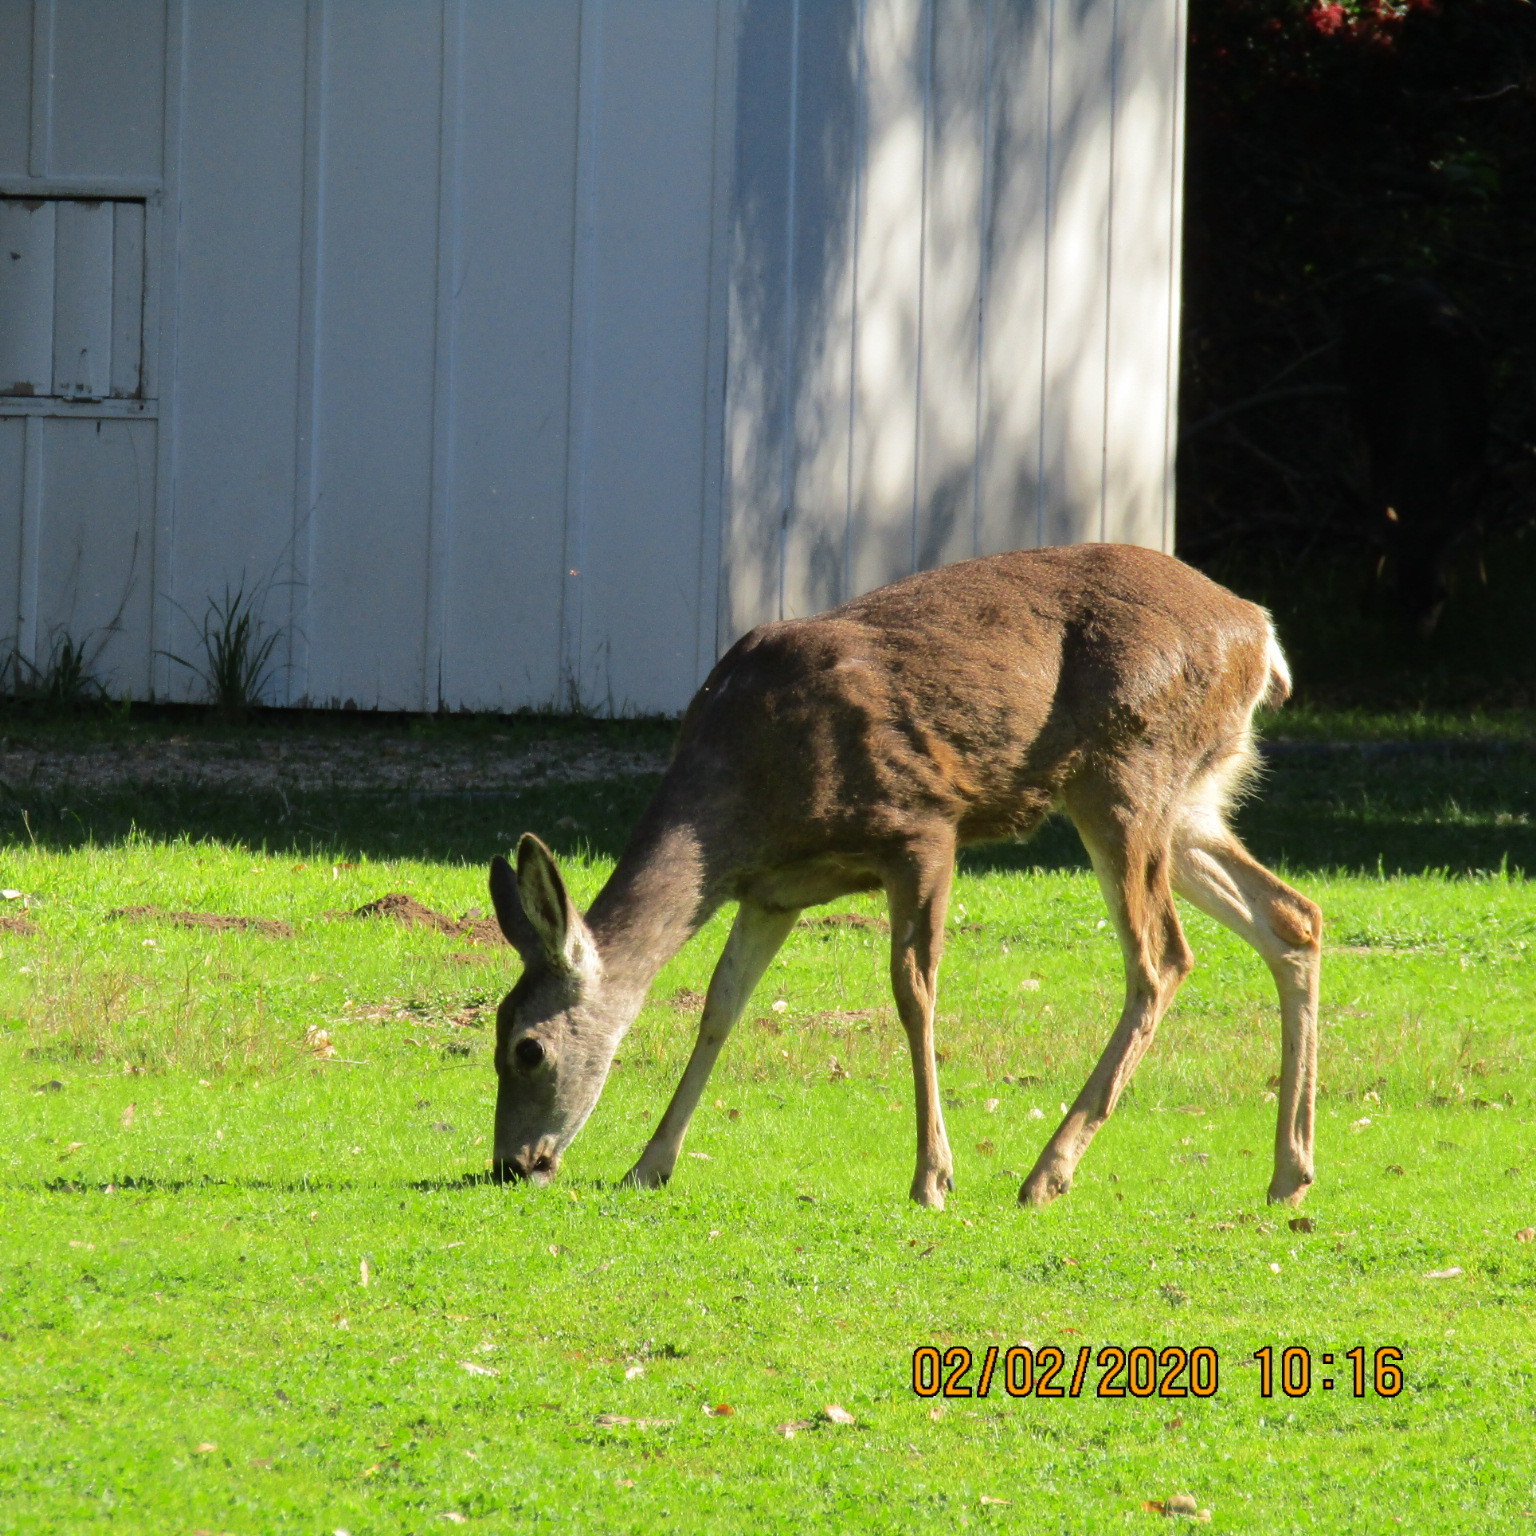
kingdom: Animalia
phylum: Chordata
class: Mammalia
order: Artiodactyla
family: Cervidae
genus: Odocoileus
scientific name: Odocoileus hemionus
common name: Mule deer
